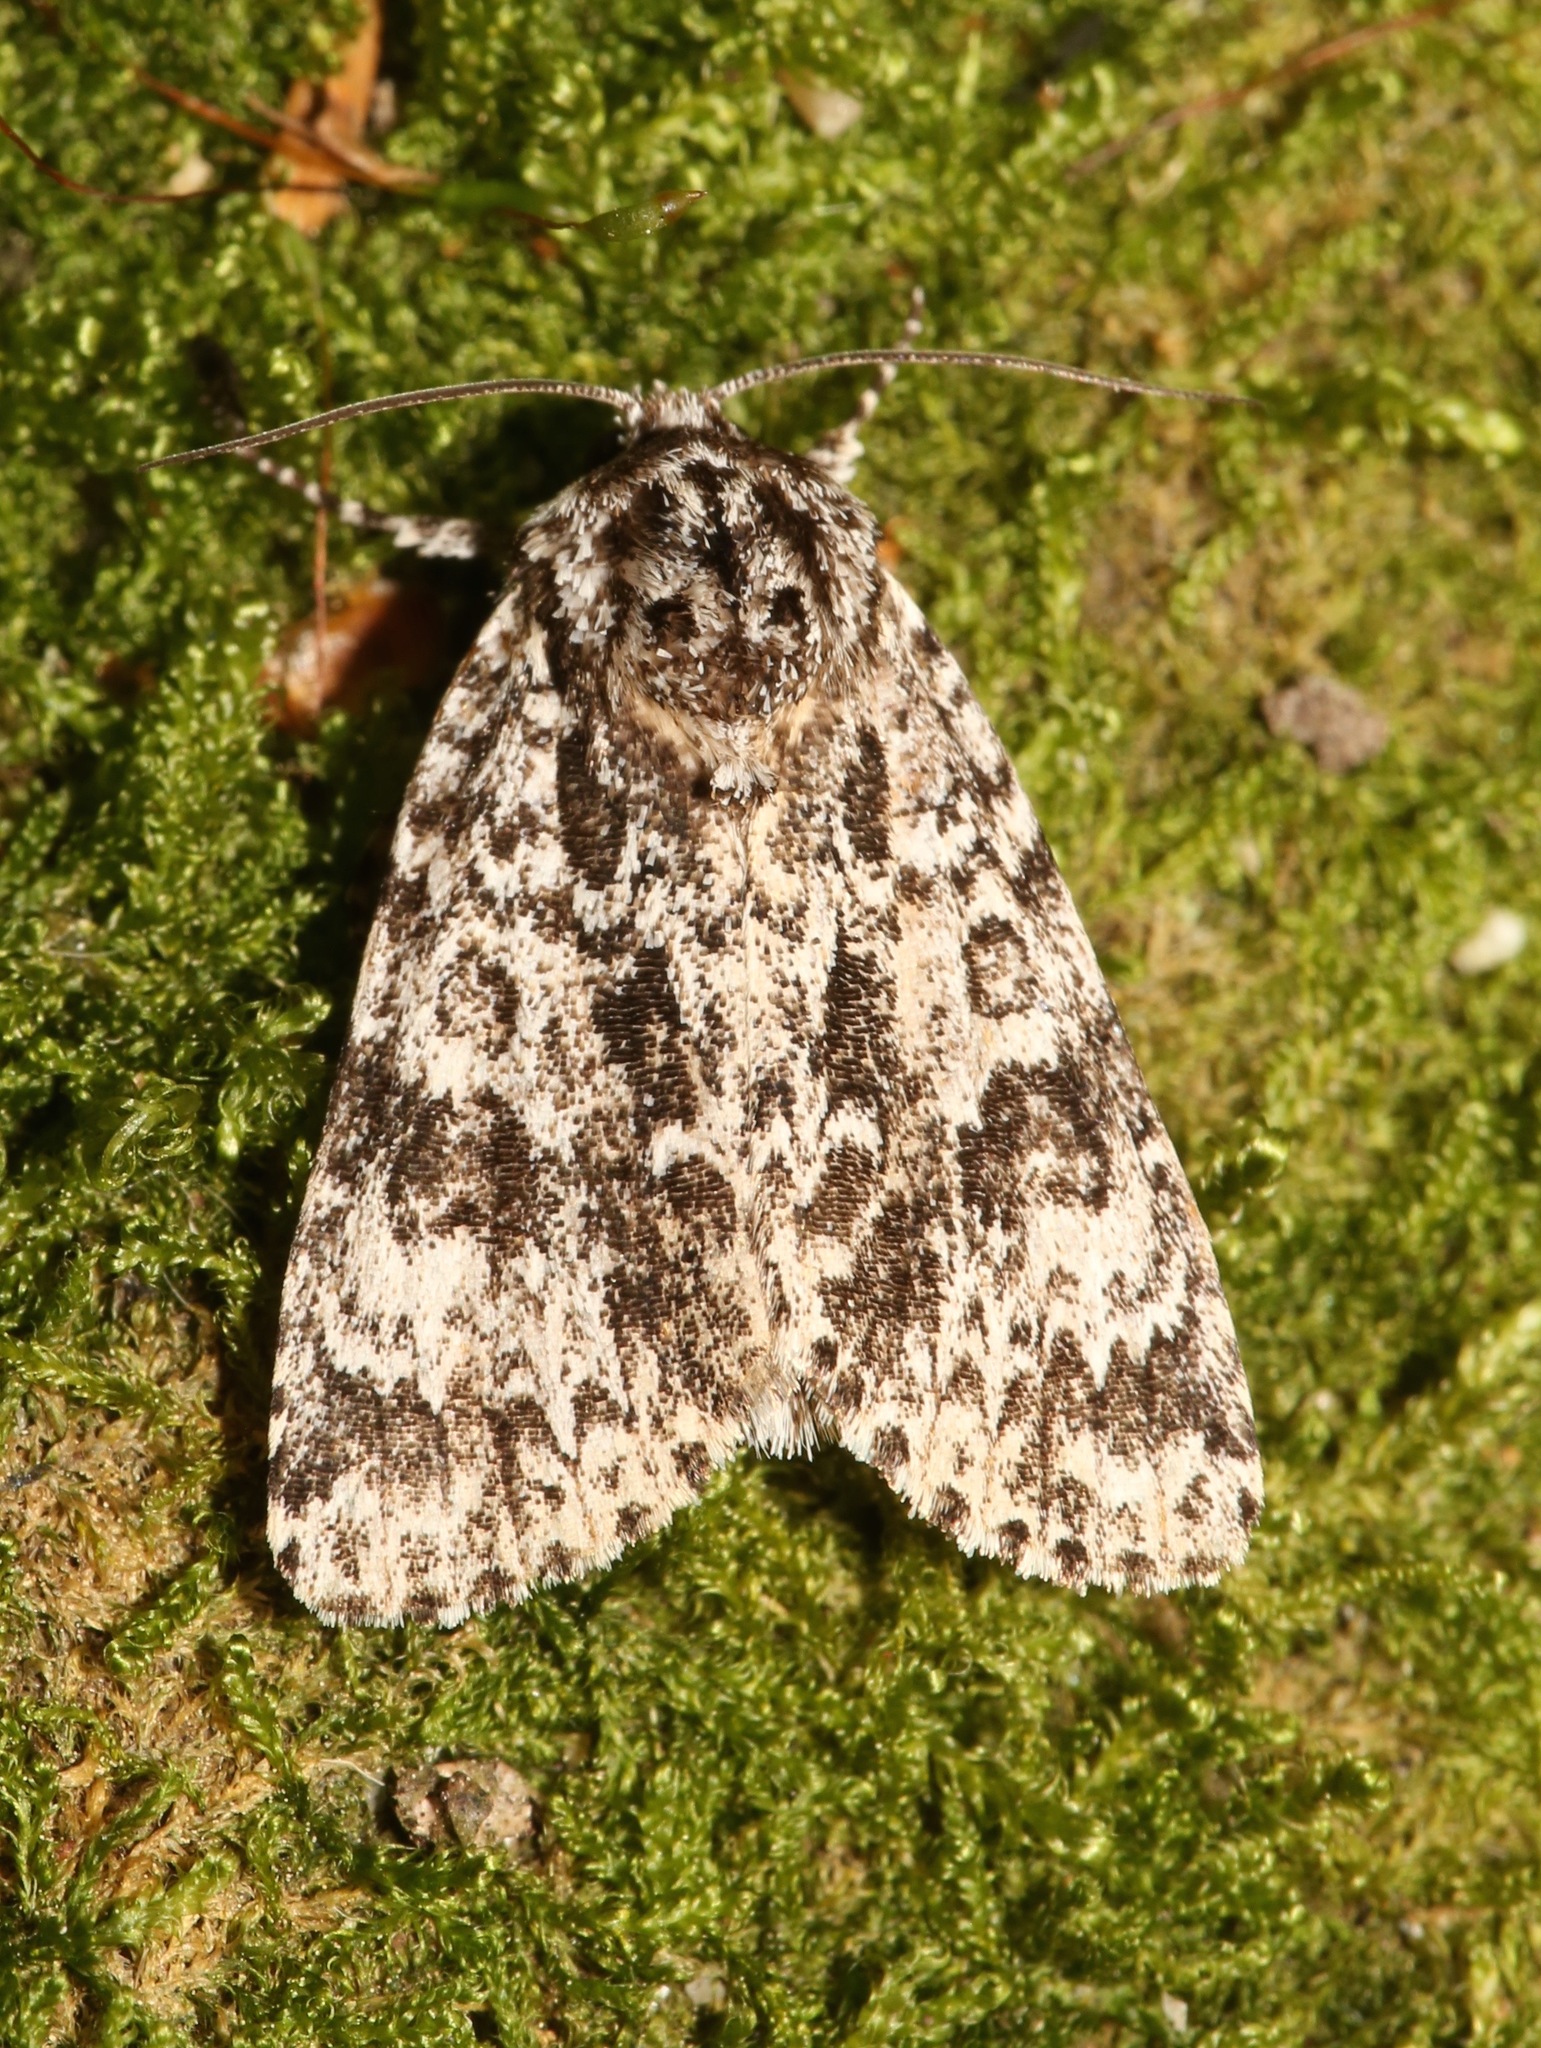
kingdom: Animalia
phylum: Arthropoda
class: Insecta
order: Lepidoptera
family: Noctuidae
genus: Acronicta
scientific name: Acronicta noctivaga
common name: Night-wandering dagger
